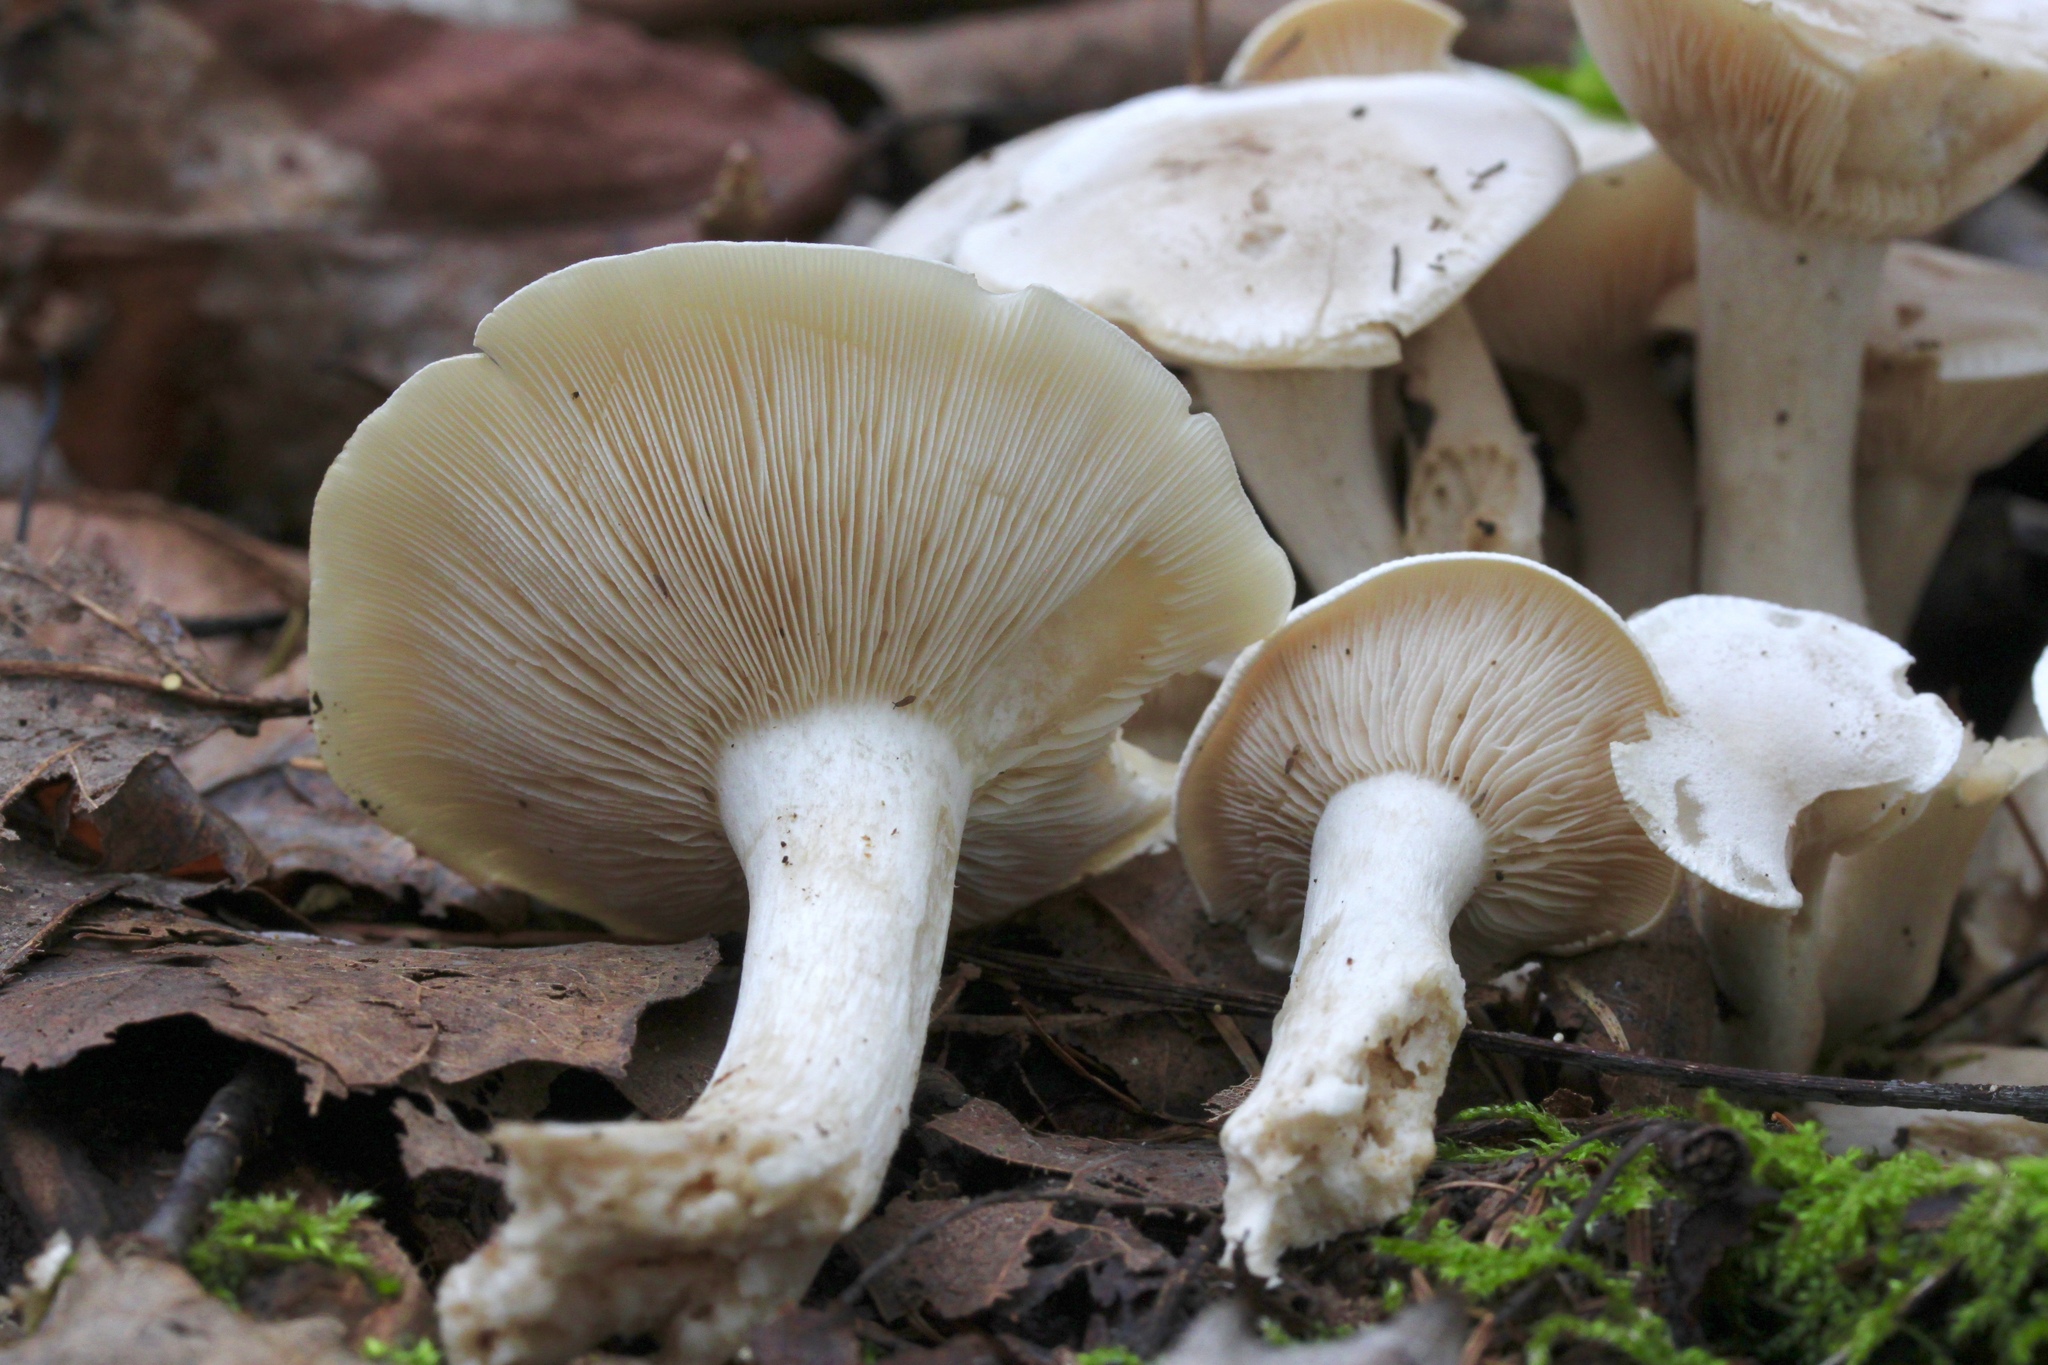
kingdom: Fungi
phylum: Basidiomycota
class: Agaricomycetes
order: Agaricales
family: Tricholomataceae
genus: Lepista
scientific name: Lepista subconnexa
